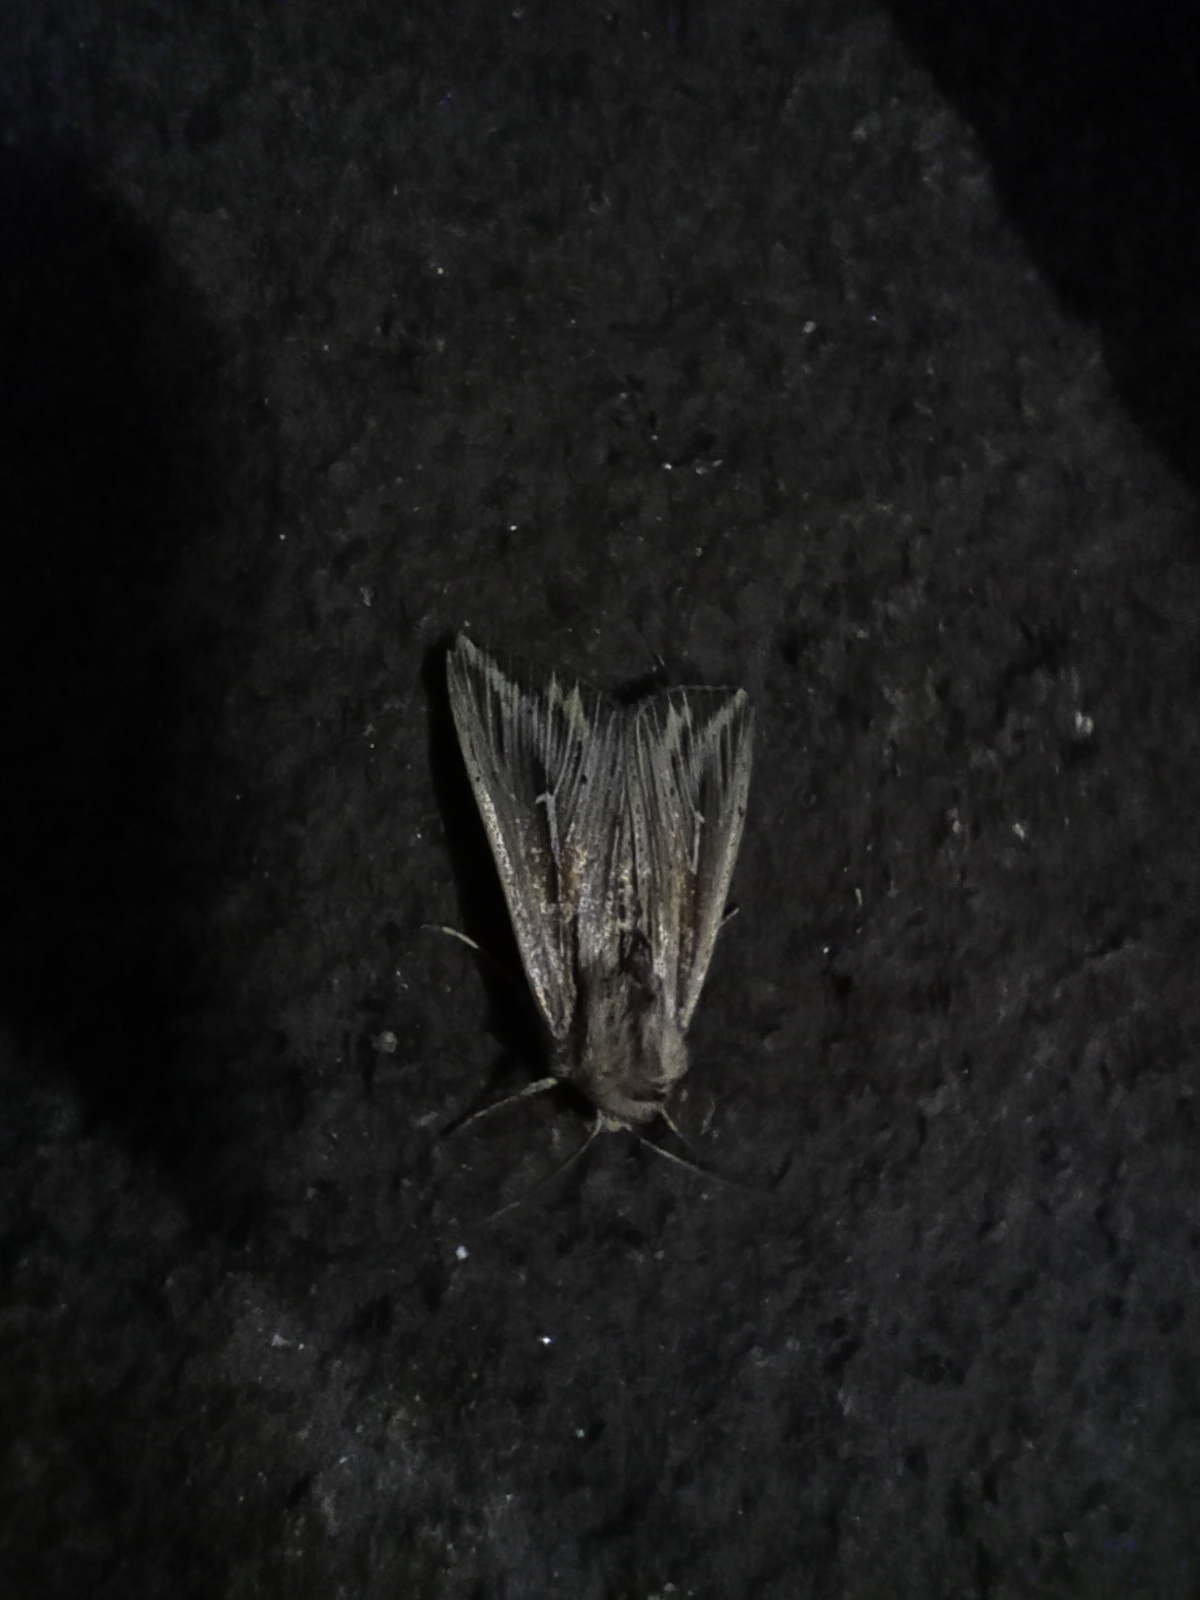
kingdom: Animalia
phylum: Arthropoda
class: Insecta
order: Lepidoptera
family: Noctuidae
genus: Mythimna
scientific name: Mythimna l-album
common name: L-album wainscot
